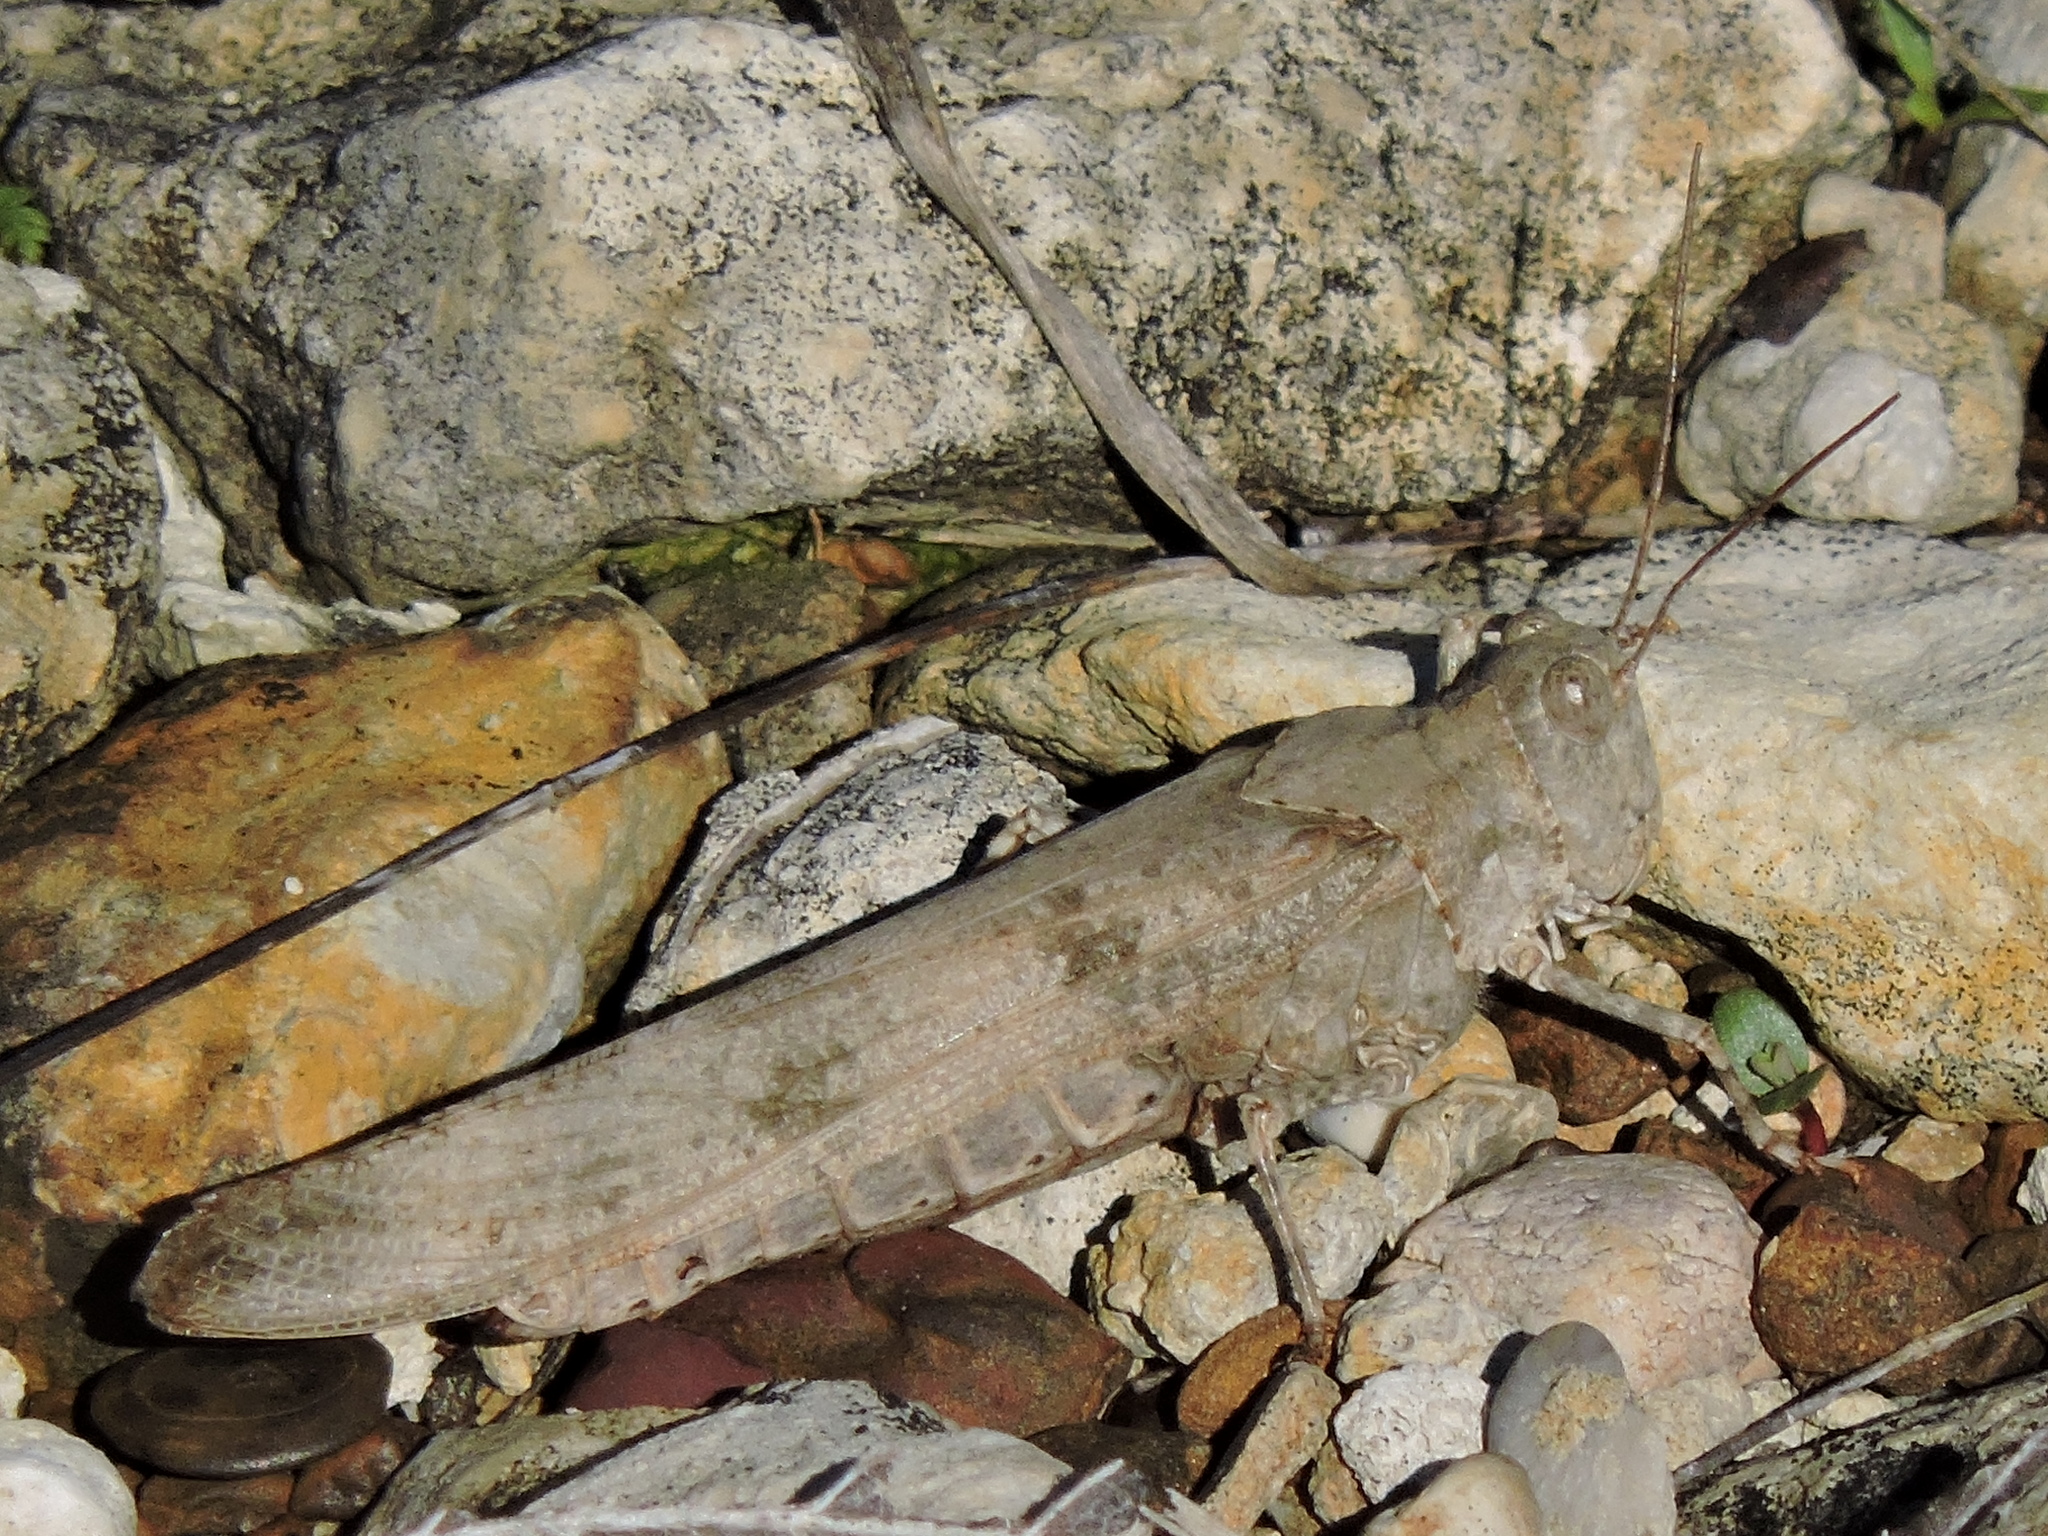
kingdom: Animalia
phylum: Arthropoda
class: Insecta
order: Orthoptera
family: Acrididae
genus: Trimerotropis
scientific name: Trimerotropis maritima
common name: Seaside locust
